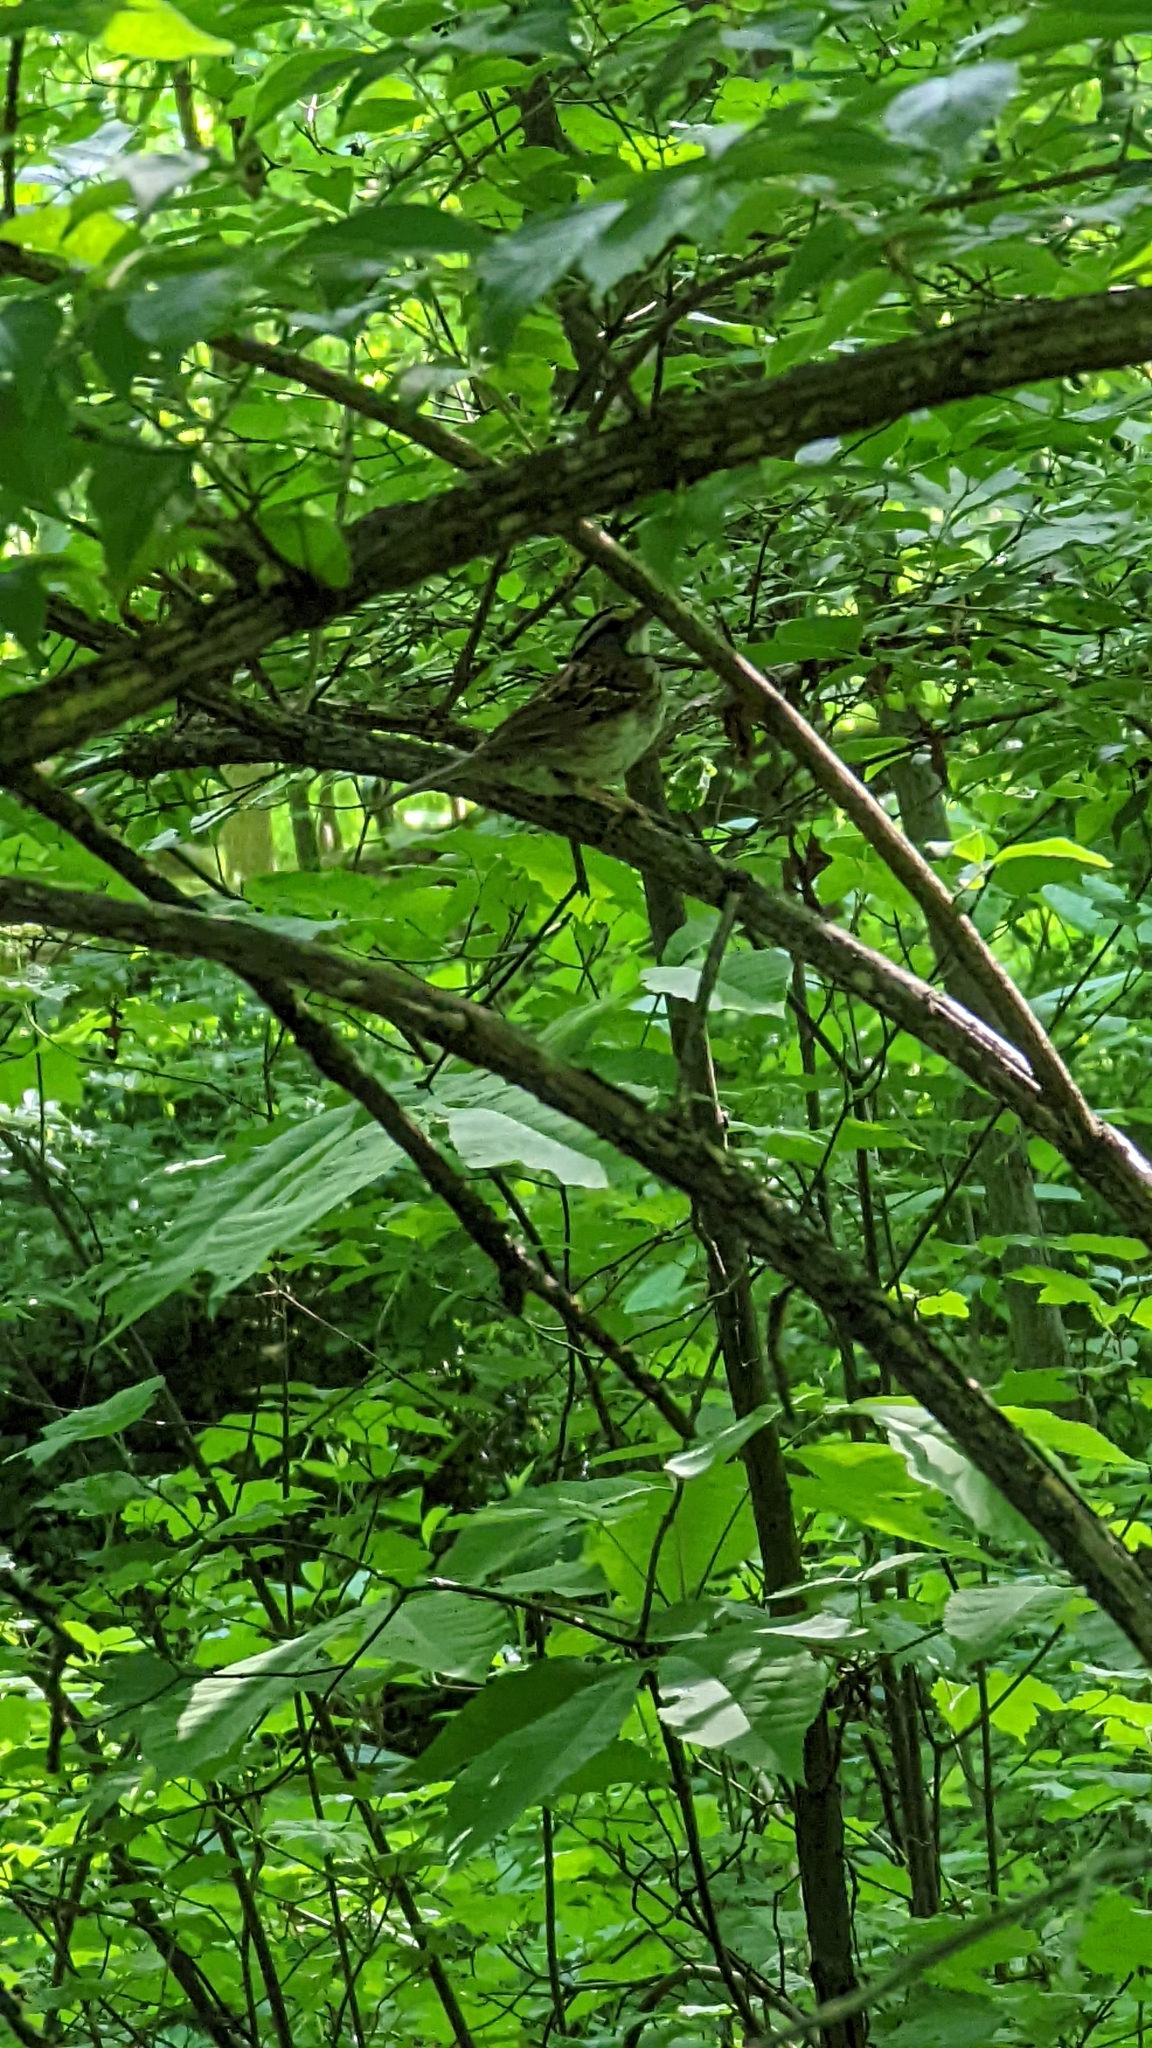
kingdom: Animalia
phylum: Chordata
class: Aves
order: Passeriformes
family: Passerellidae
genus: Zonotrichia
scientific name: Zonotrichia albicollis
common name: White-throated sparrow
